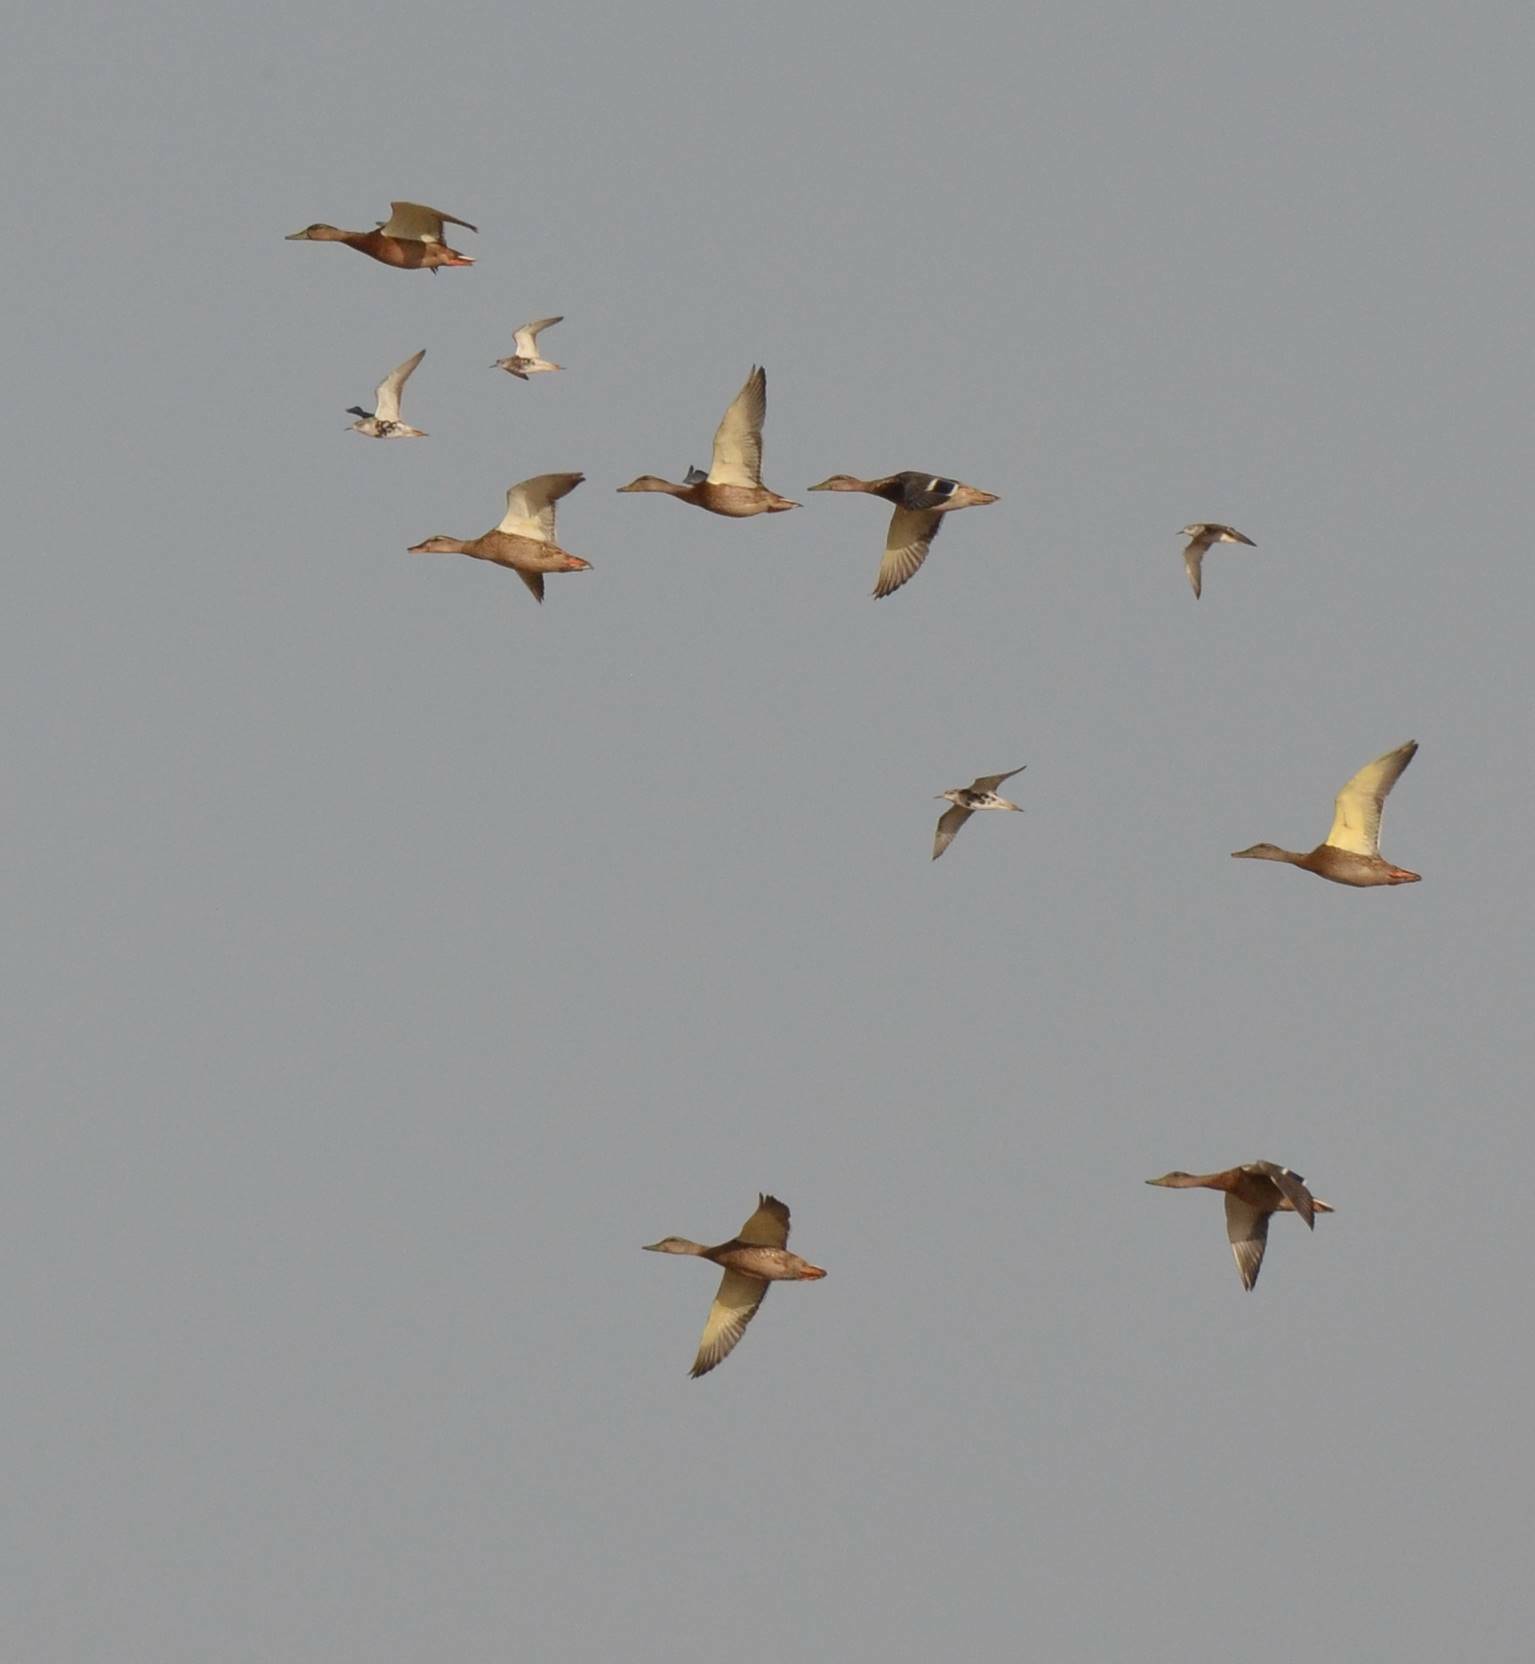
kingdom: Animalia
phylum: Chordata
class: Aves
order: Anseriformes
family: Anatidae
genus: Anas
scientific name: Anas platyrhynchos
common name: Mallard
